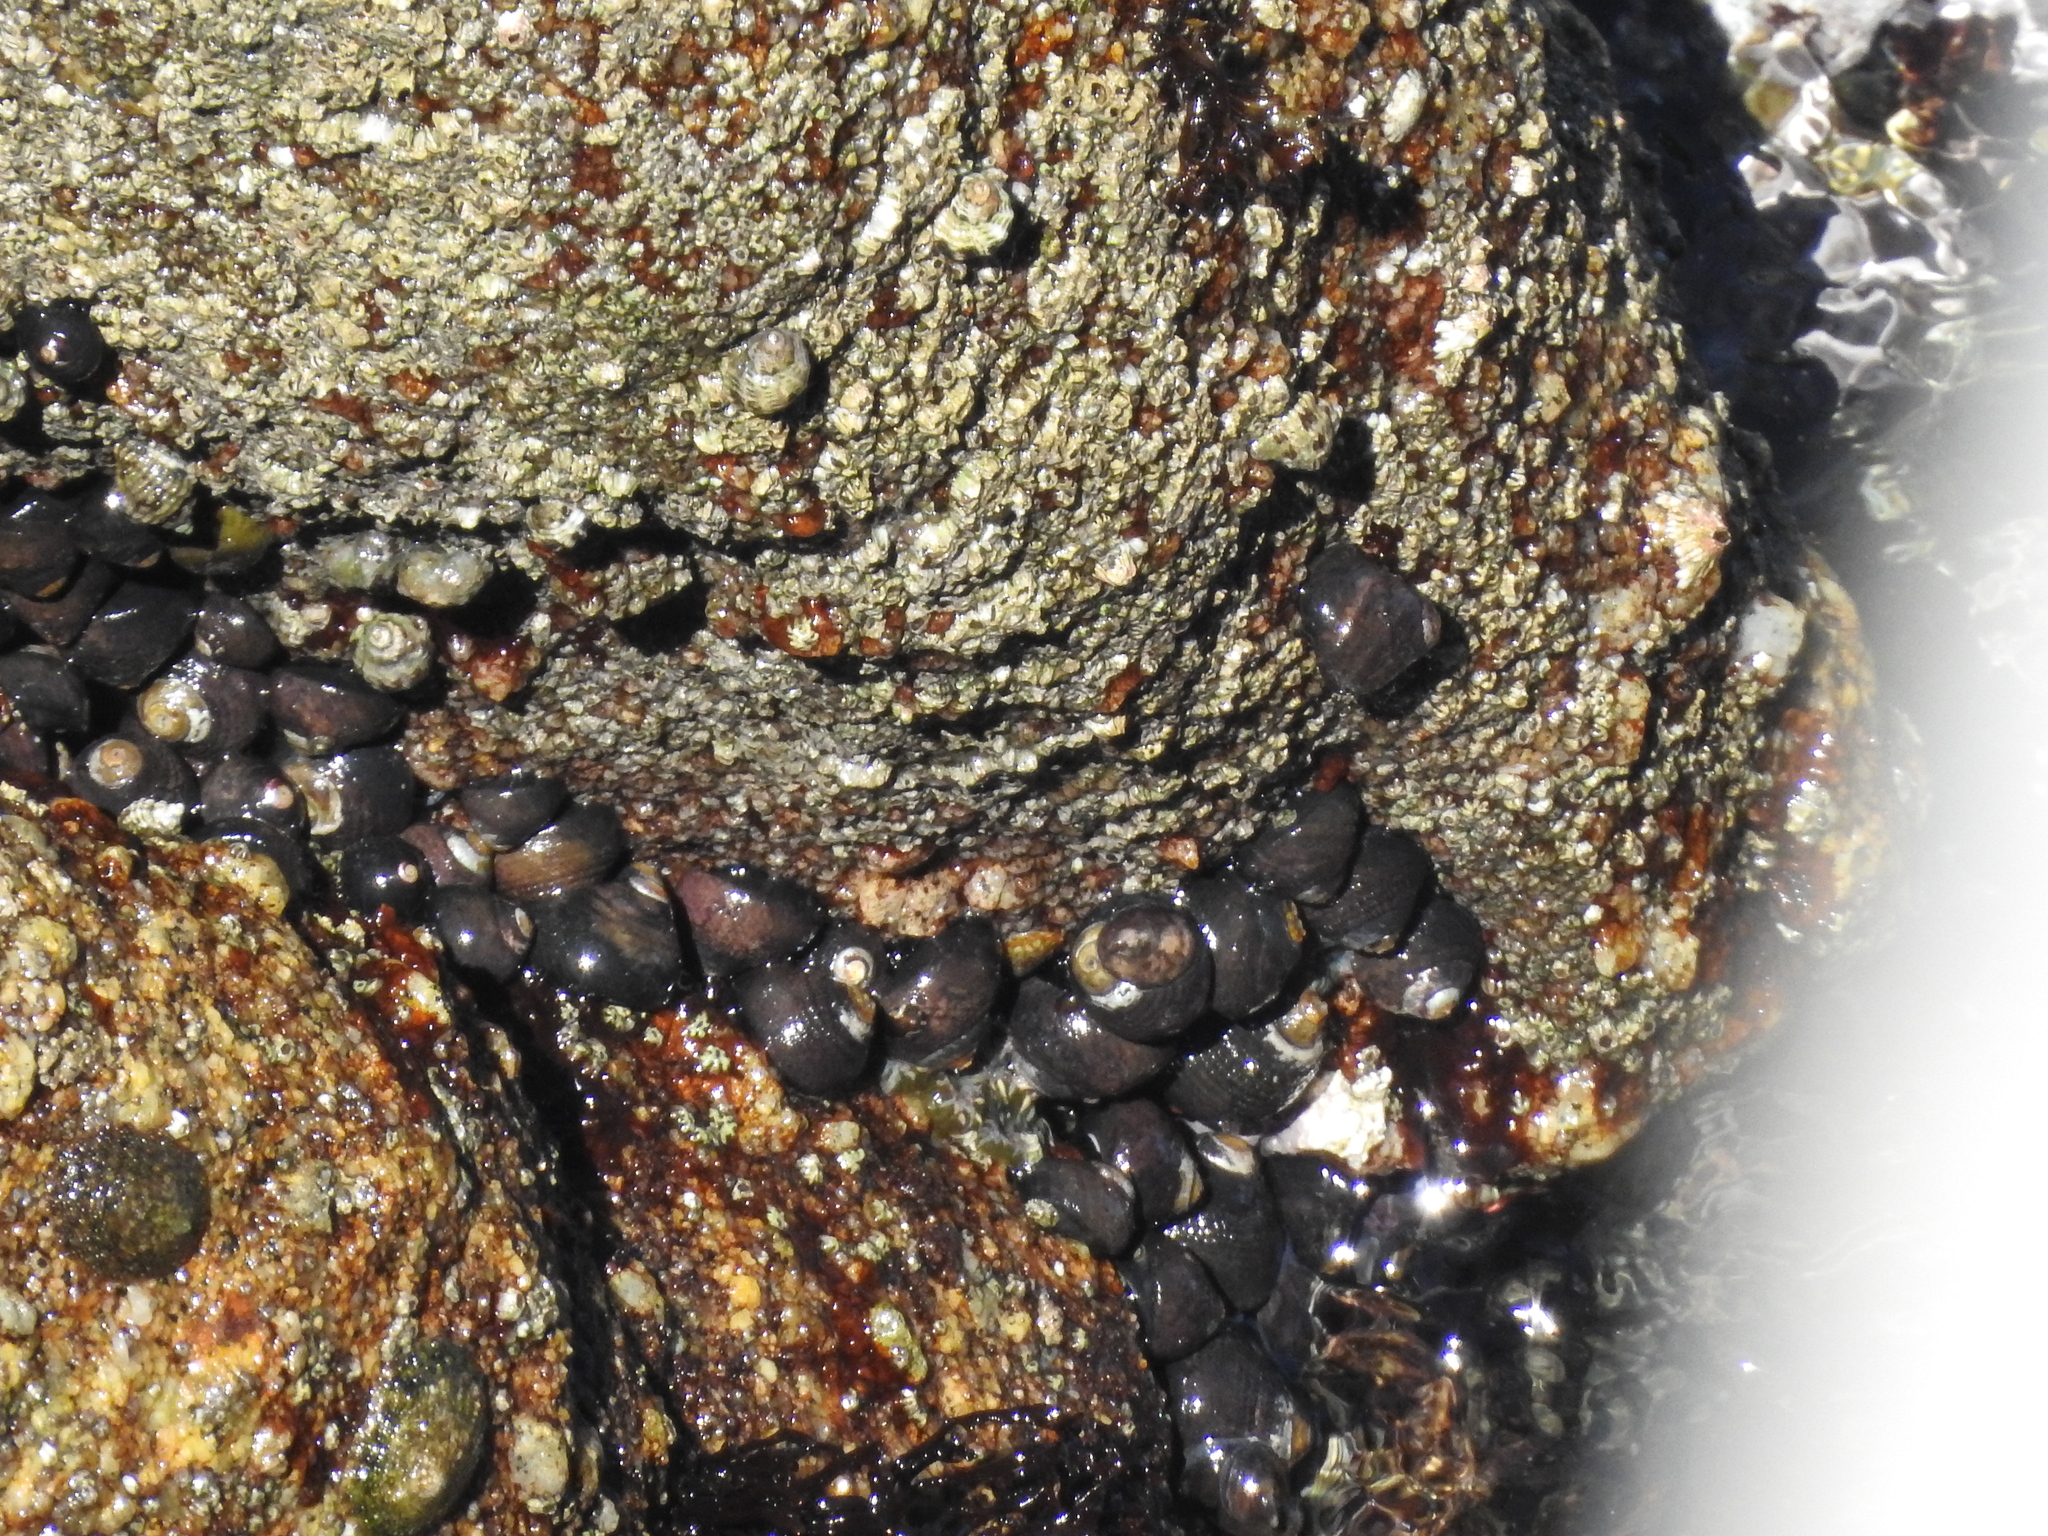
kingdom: Animalia
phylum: Mollusca
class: Gastropoda
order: Trochida
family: Tegulidae
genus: Tegula
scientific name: Tegula funebralis
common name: Black tegula
